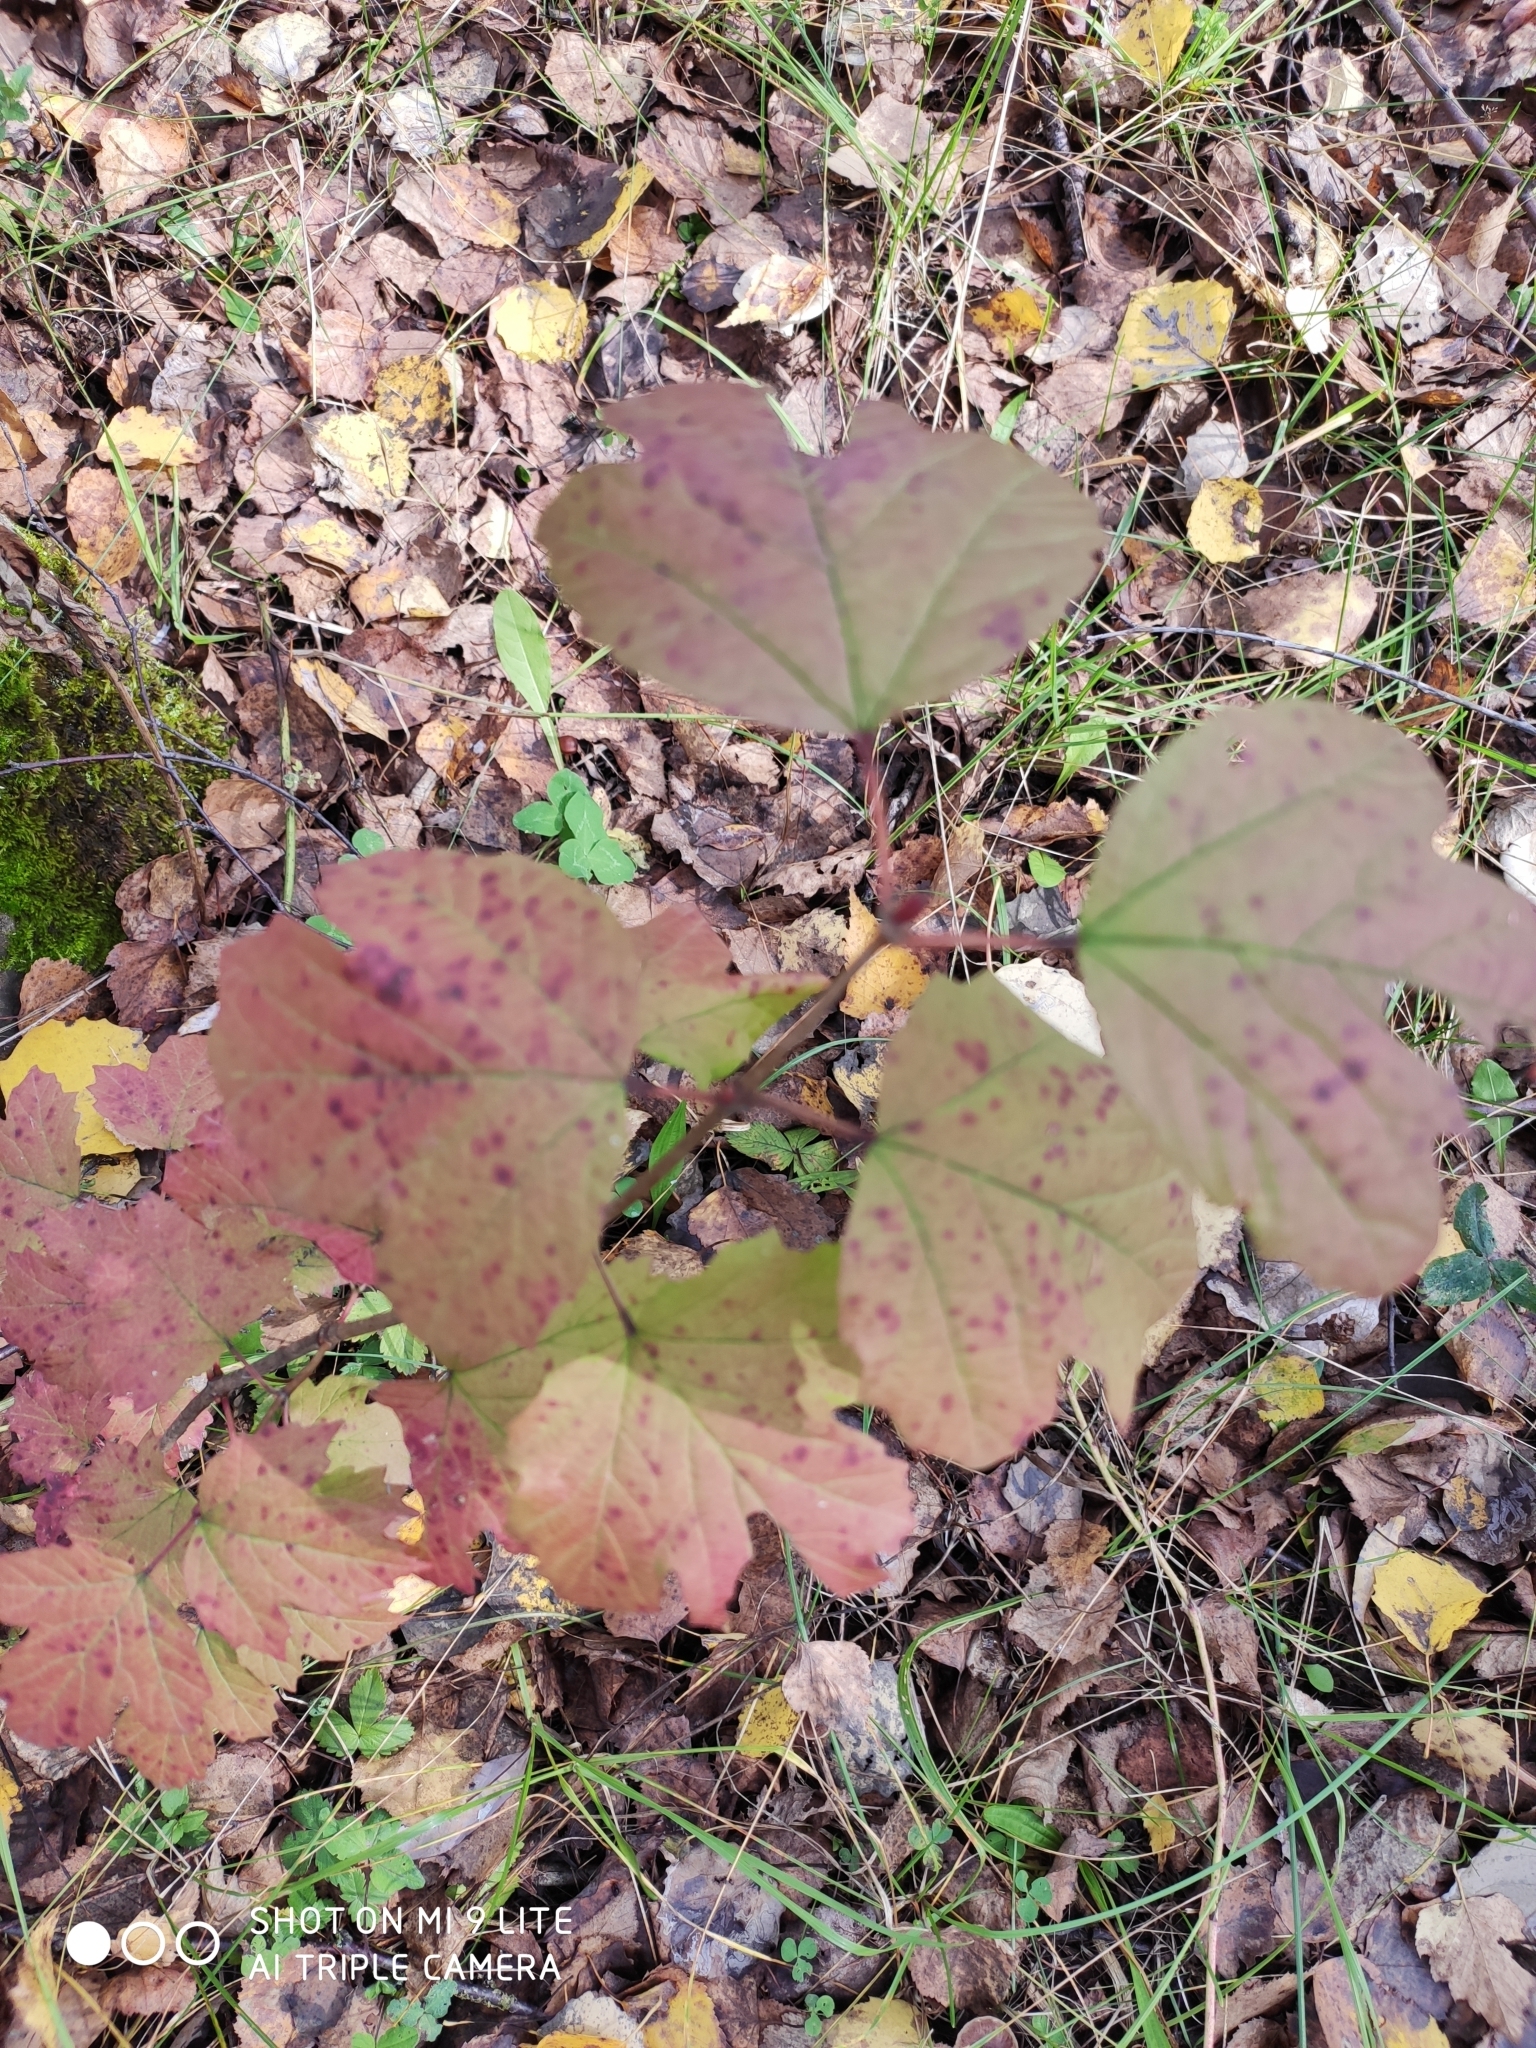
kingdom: Plantae
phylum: Tracheophyta
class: Magnoliopsida
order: Dipsacales
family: Viburnaceae
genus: Viburnum
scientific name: Viburnum opulus
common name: Guelder-rose
